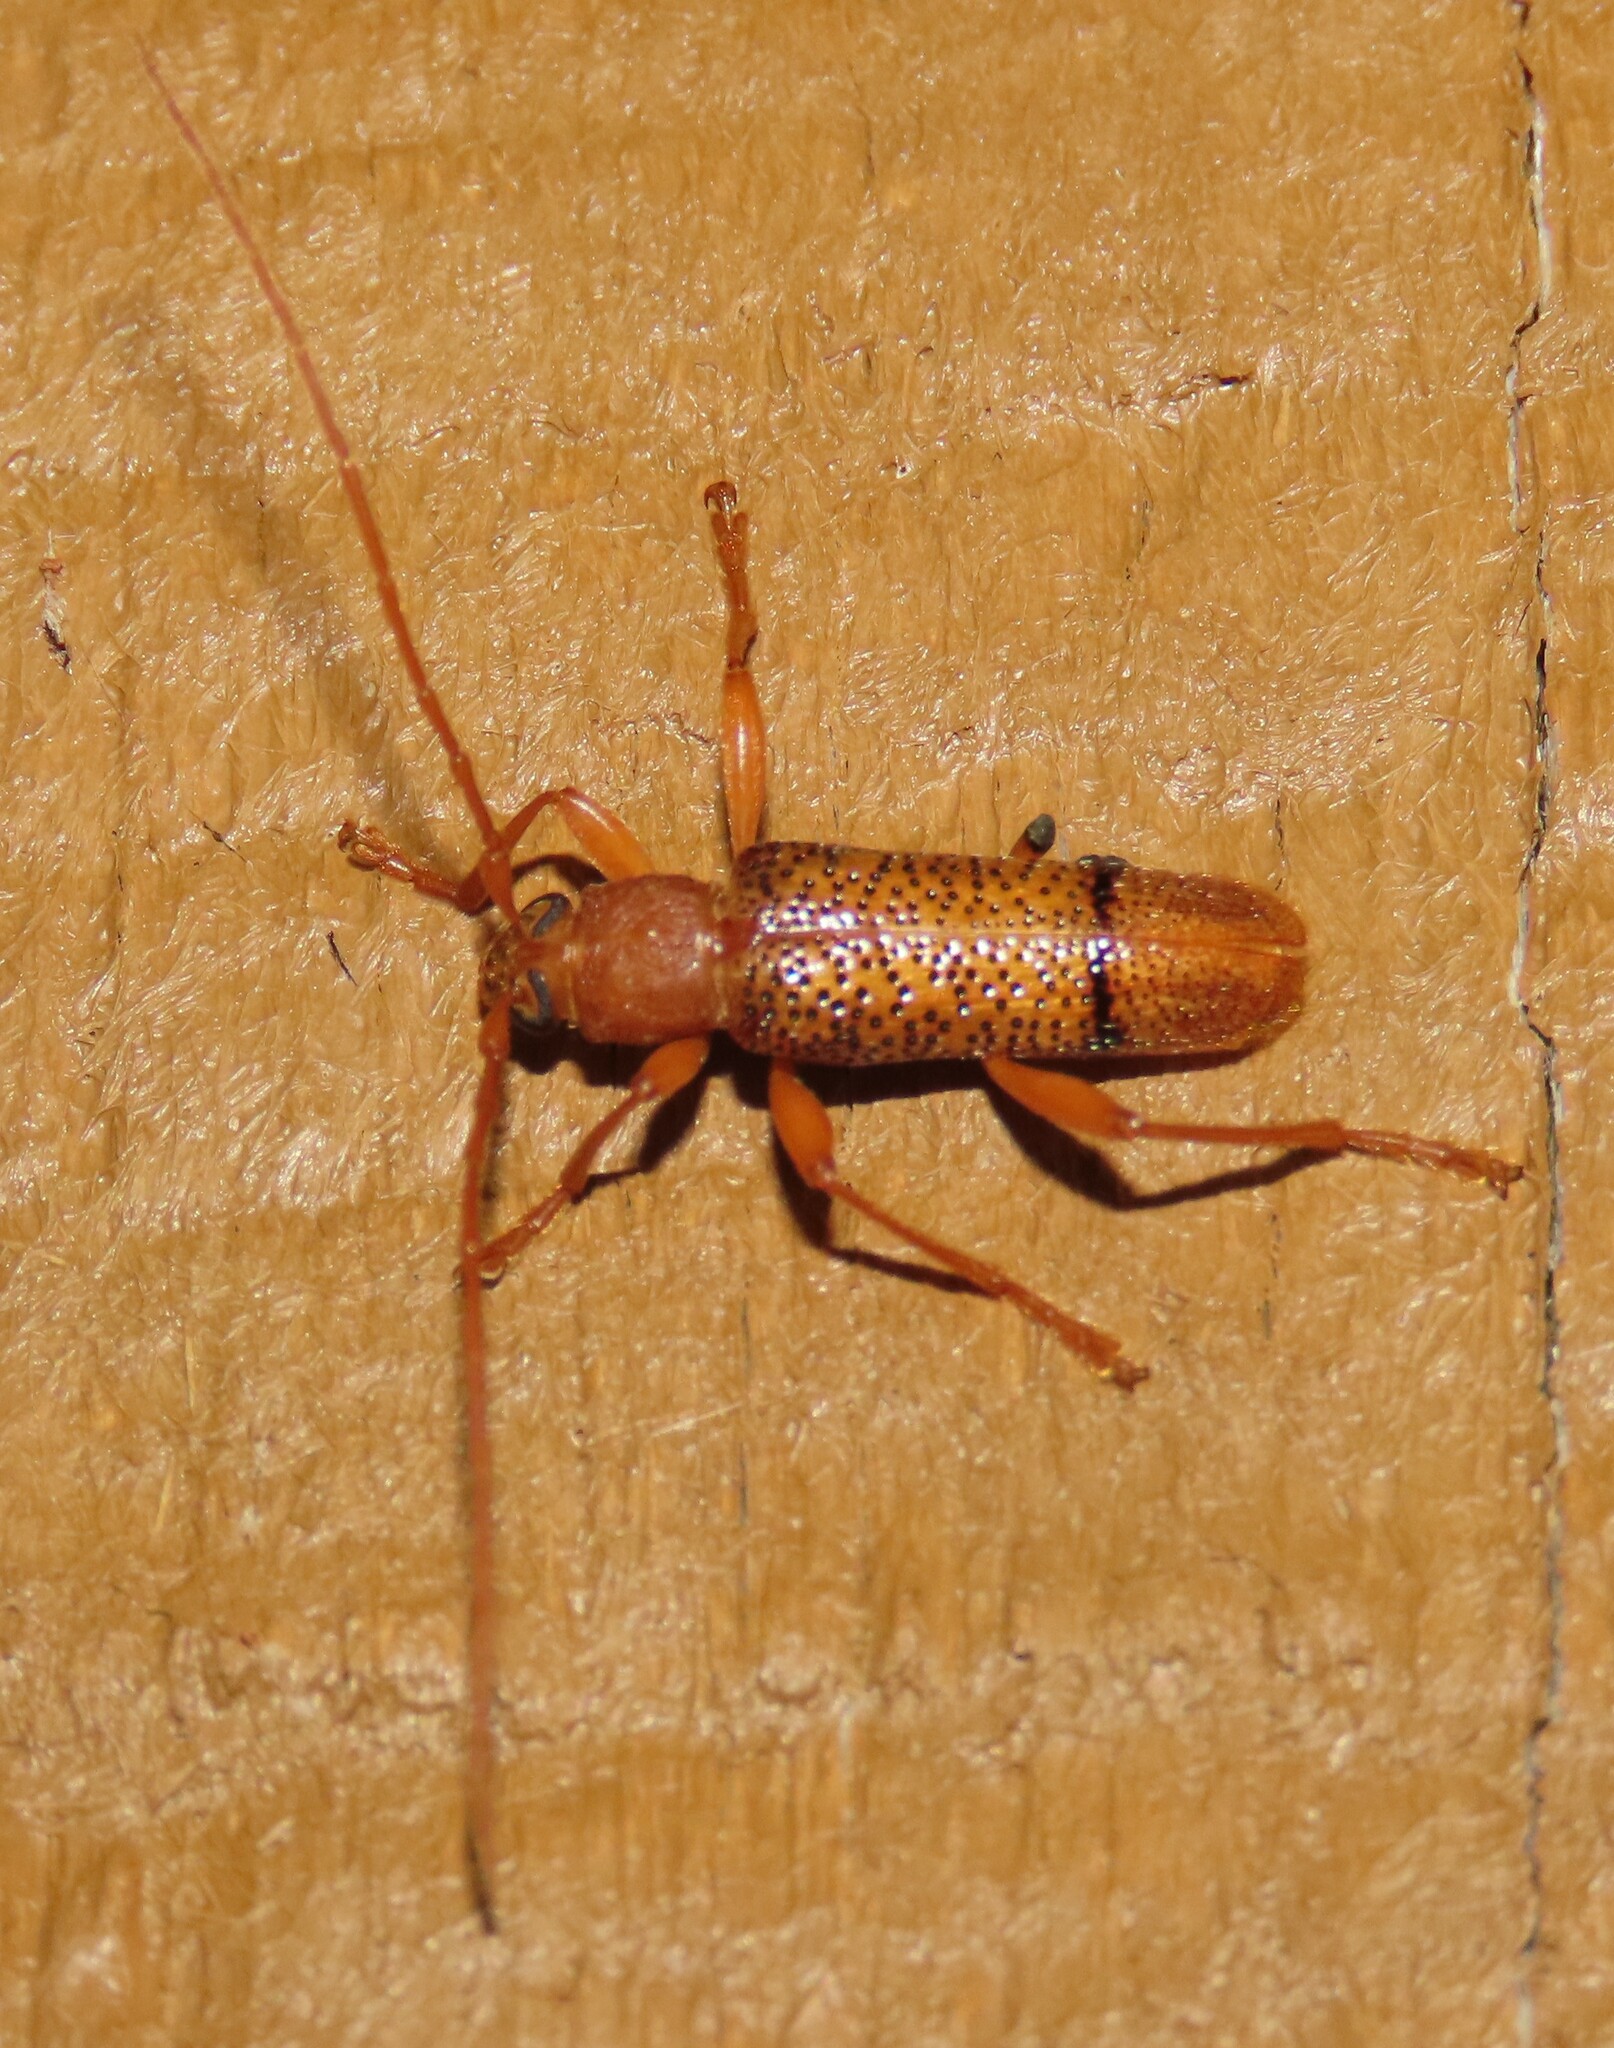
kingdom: Animalia
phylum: Arthropoda
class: Insecta
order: Coleoptera
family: Cerambycidae
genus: Xuthodes
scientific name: Xuthodes punctipennis
